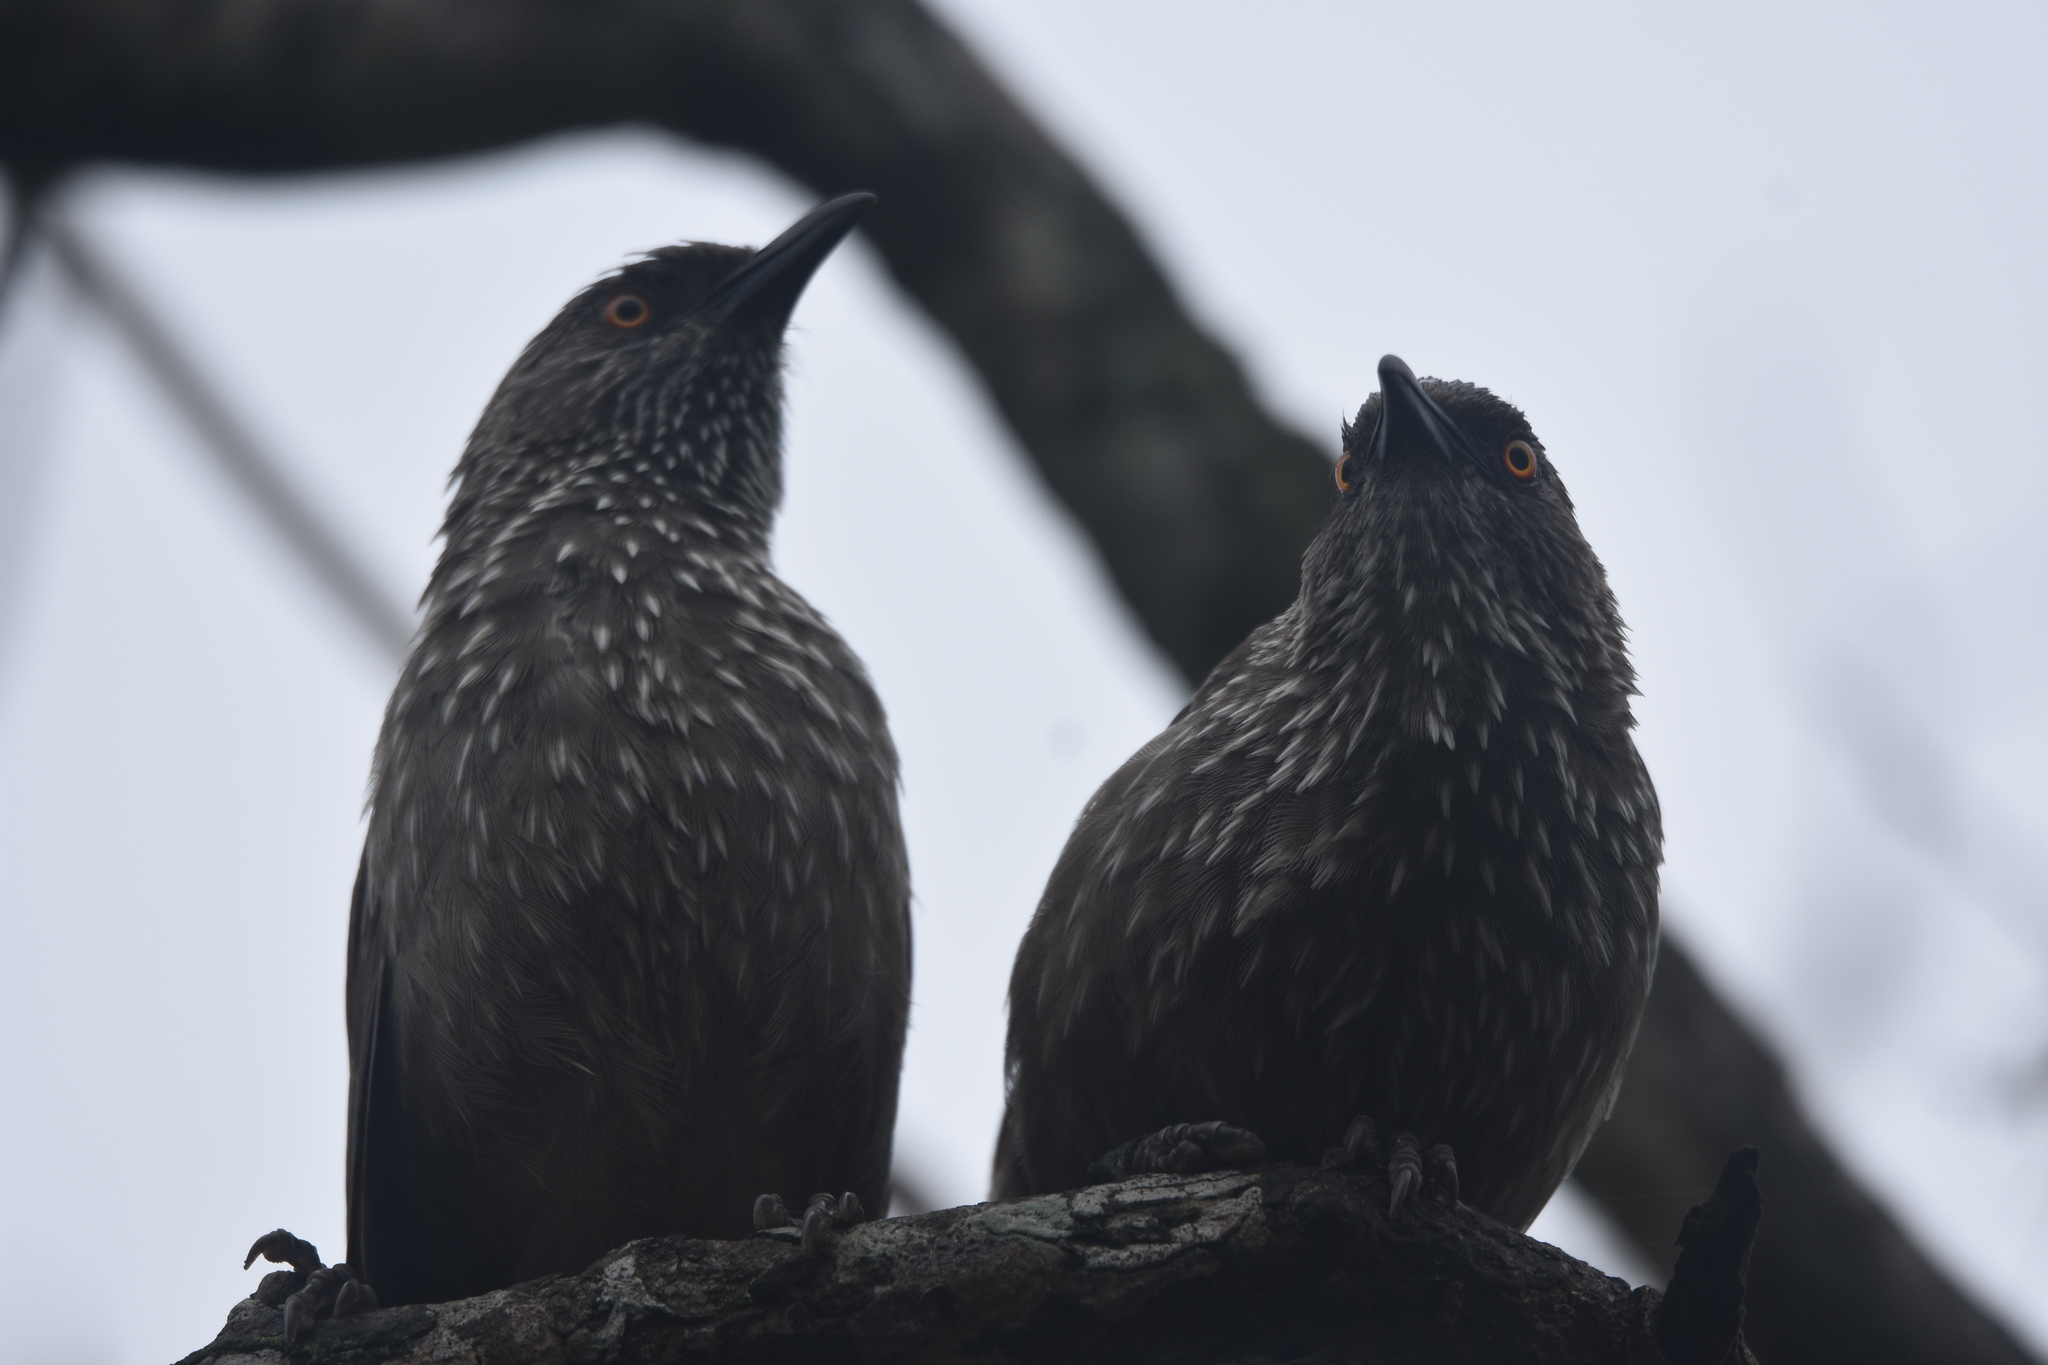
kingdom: Animalia
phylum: Chordata
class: Aves
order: Passeriformes
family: Leiothrichidae
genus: Turdoides
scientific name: Turdoides jardineii
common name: Arrow-marked babbler
